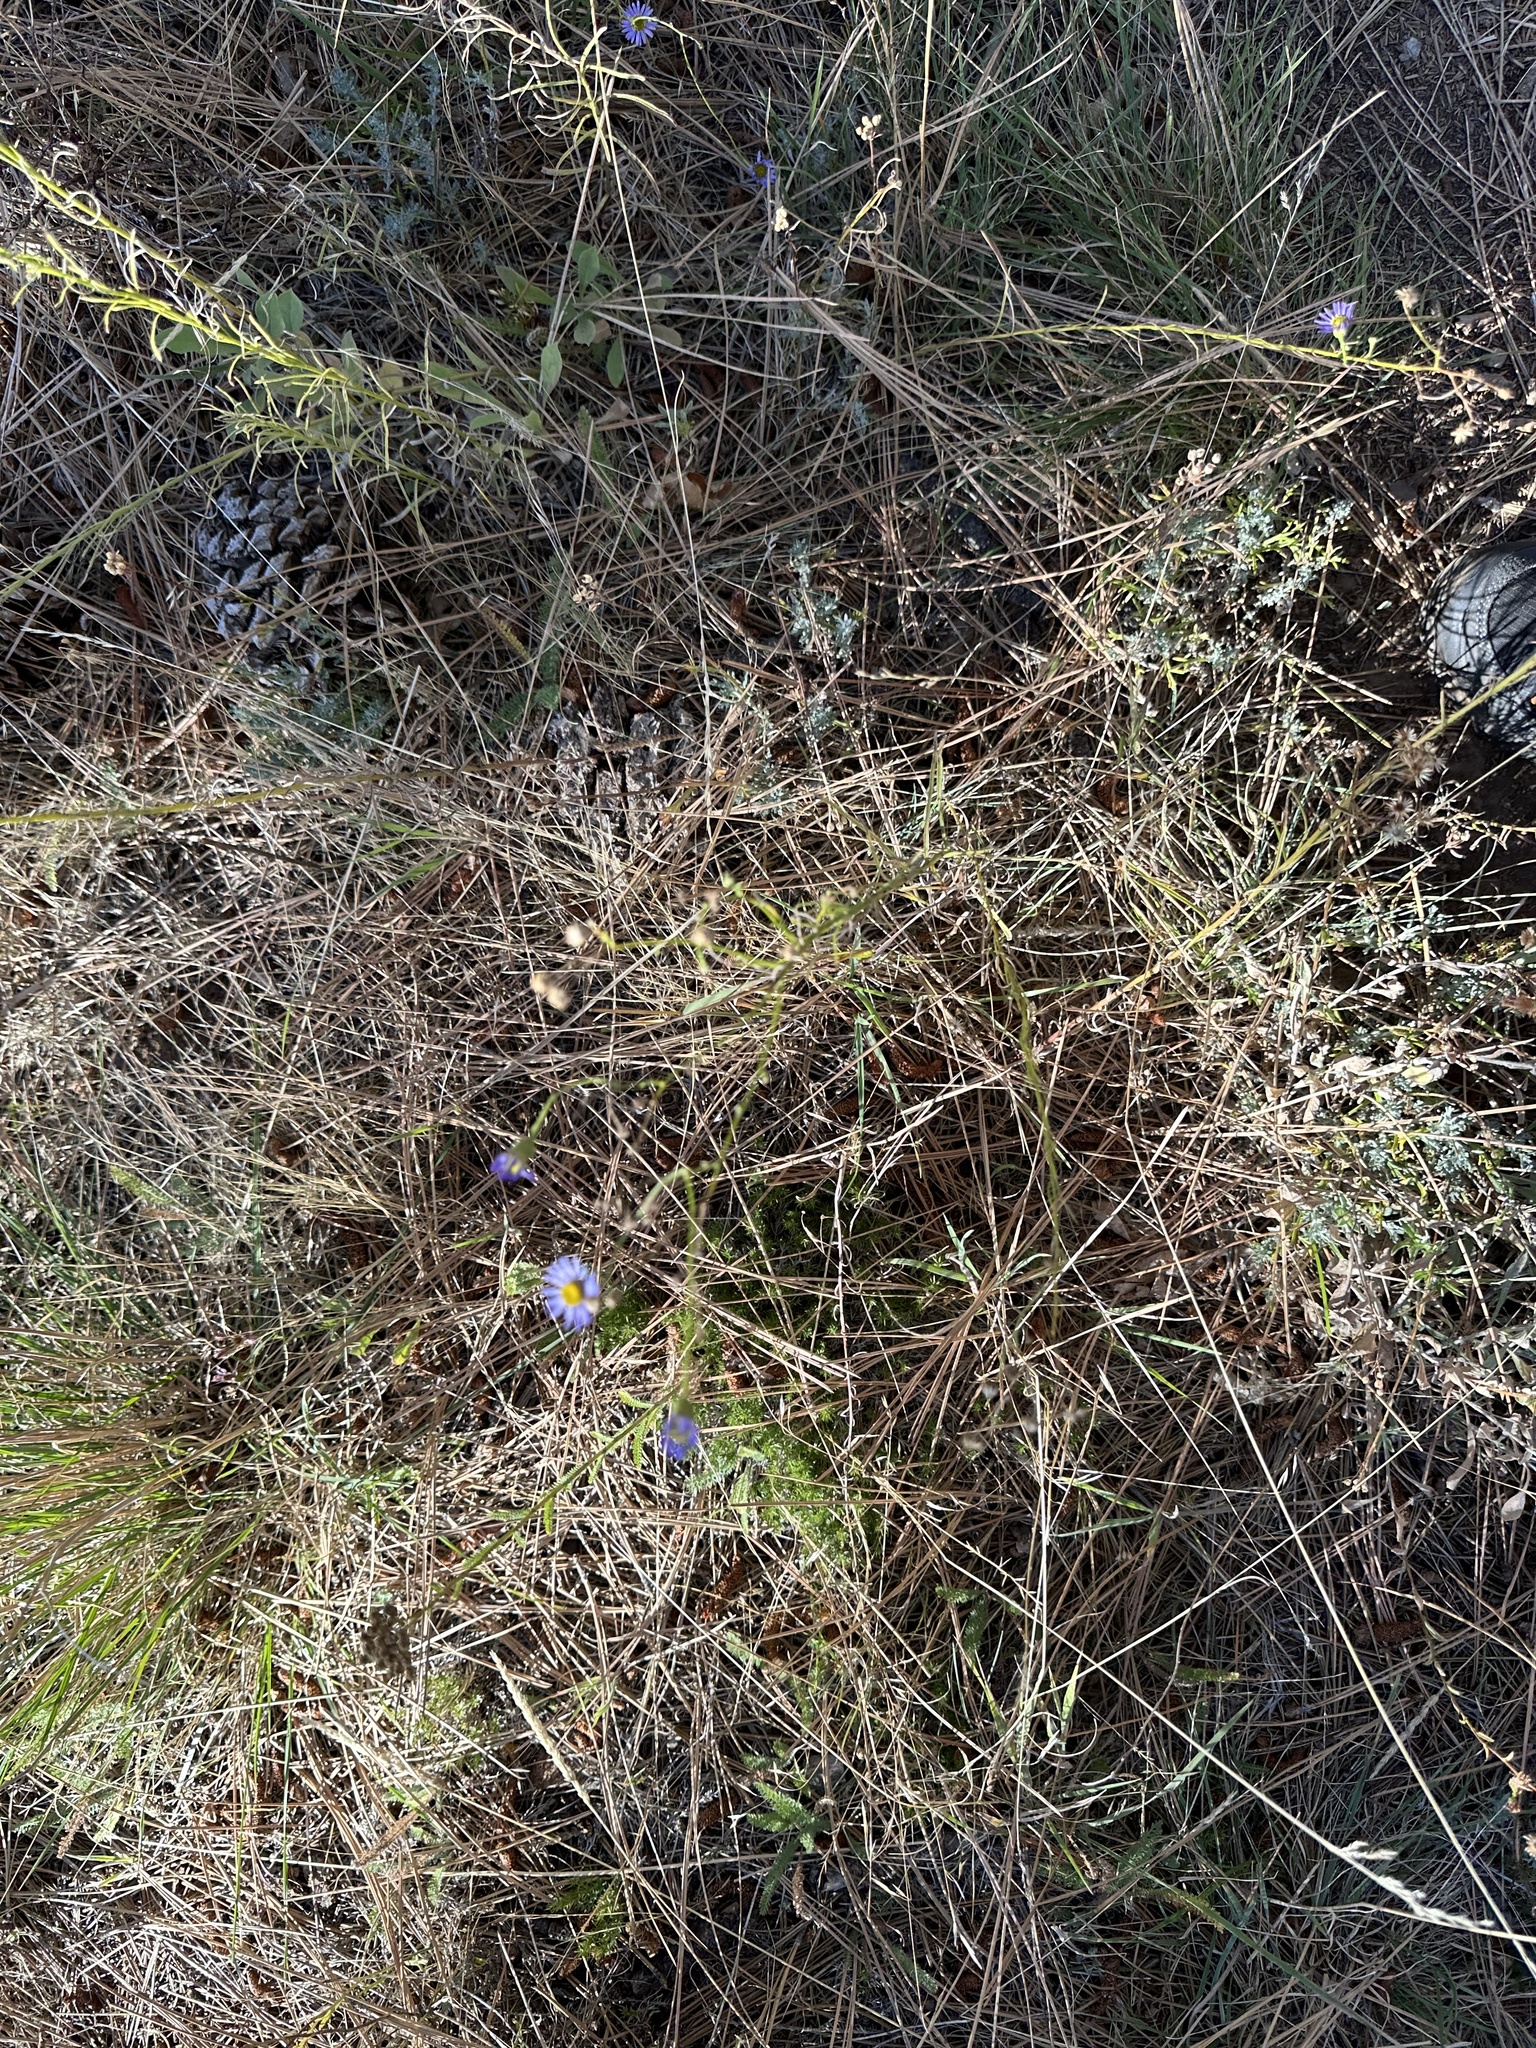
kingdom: Plantae
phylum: Tracheophyta
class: Magnoliopsida
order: Asterales
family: Asteraceae
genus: Erigeron
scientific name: Erigeron foliosus
